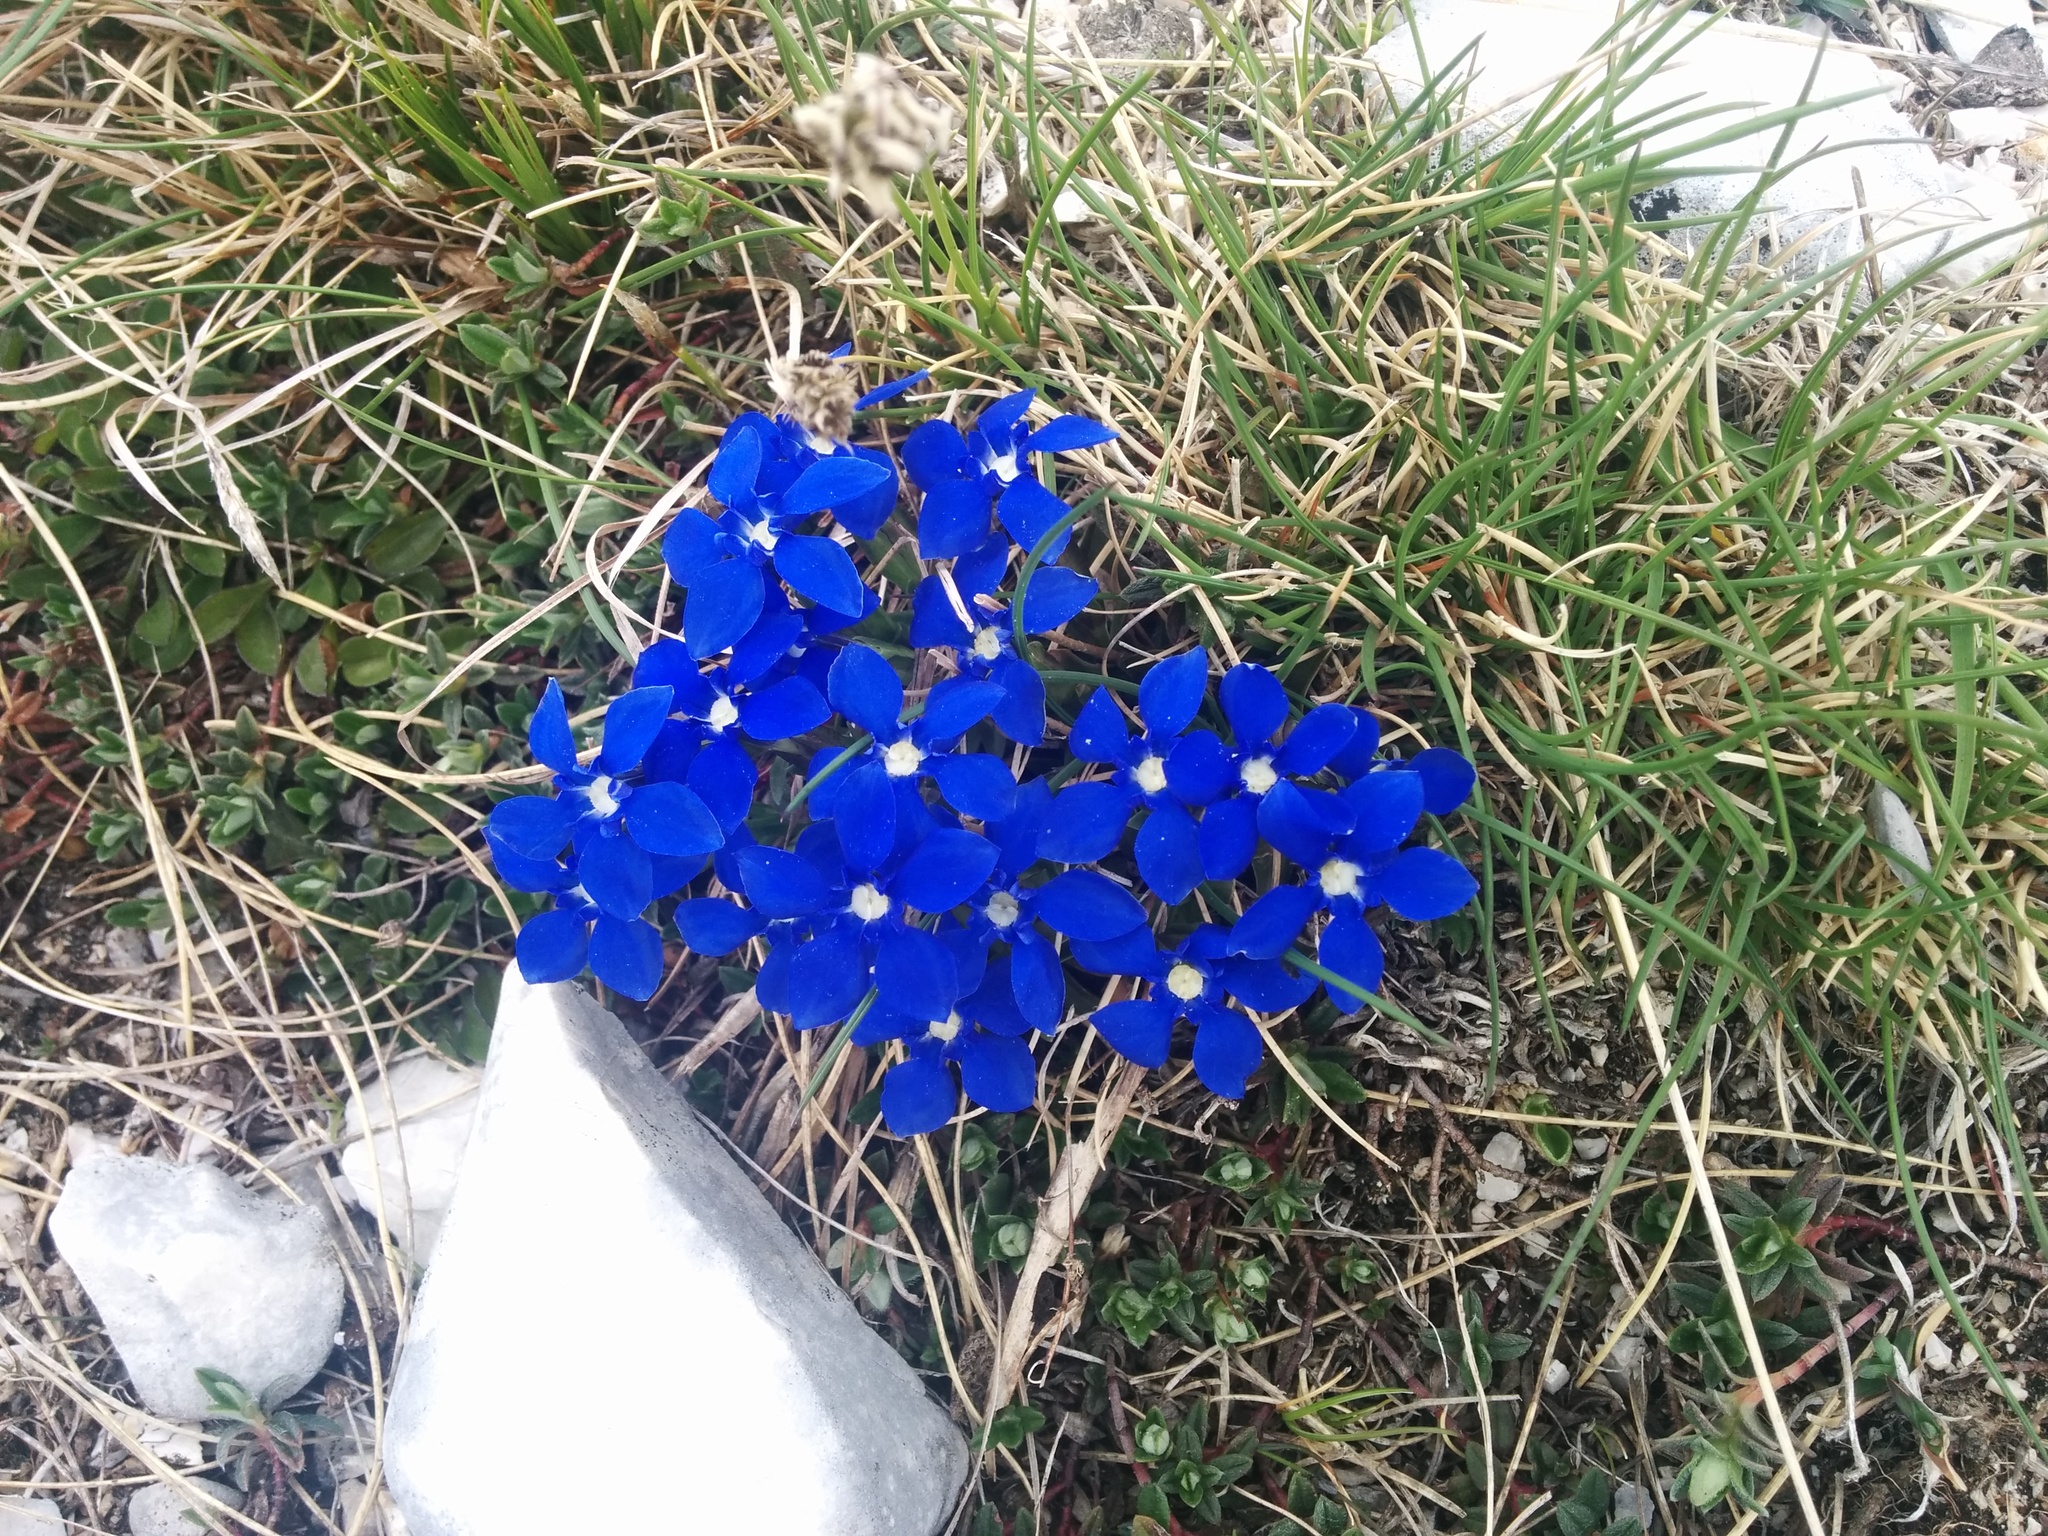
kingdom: Plantae
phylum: Tracheophyta
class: Magnoliopsida
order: Gentianales
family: Gentianaceae
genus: Gentiana
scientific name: Gentiana verna
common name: Spring gentian
